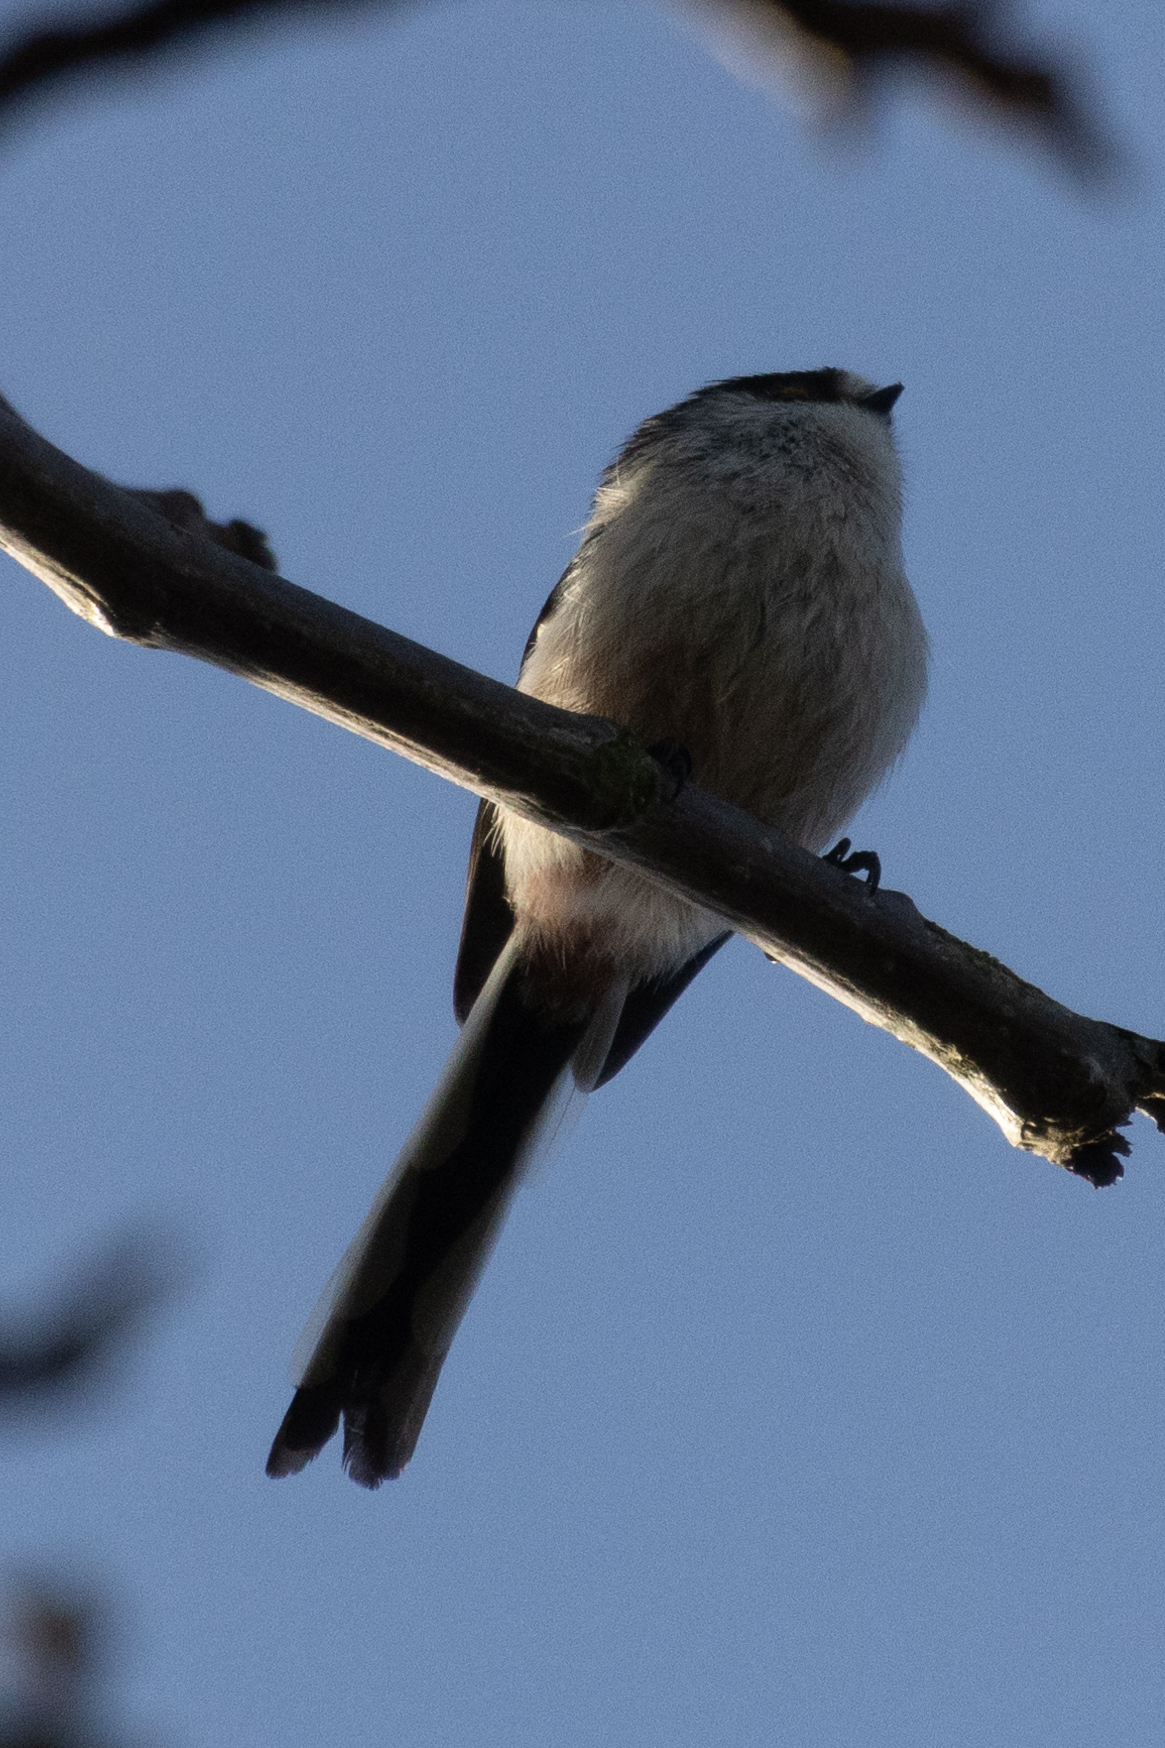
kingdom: Animalia
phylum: Chordata
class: Aves
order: Passeriformes
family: Aegithalidae
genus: Aegithalos
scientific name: Aegithalos caudatus
